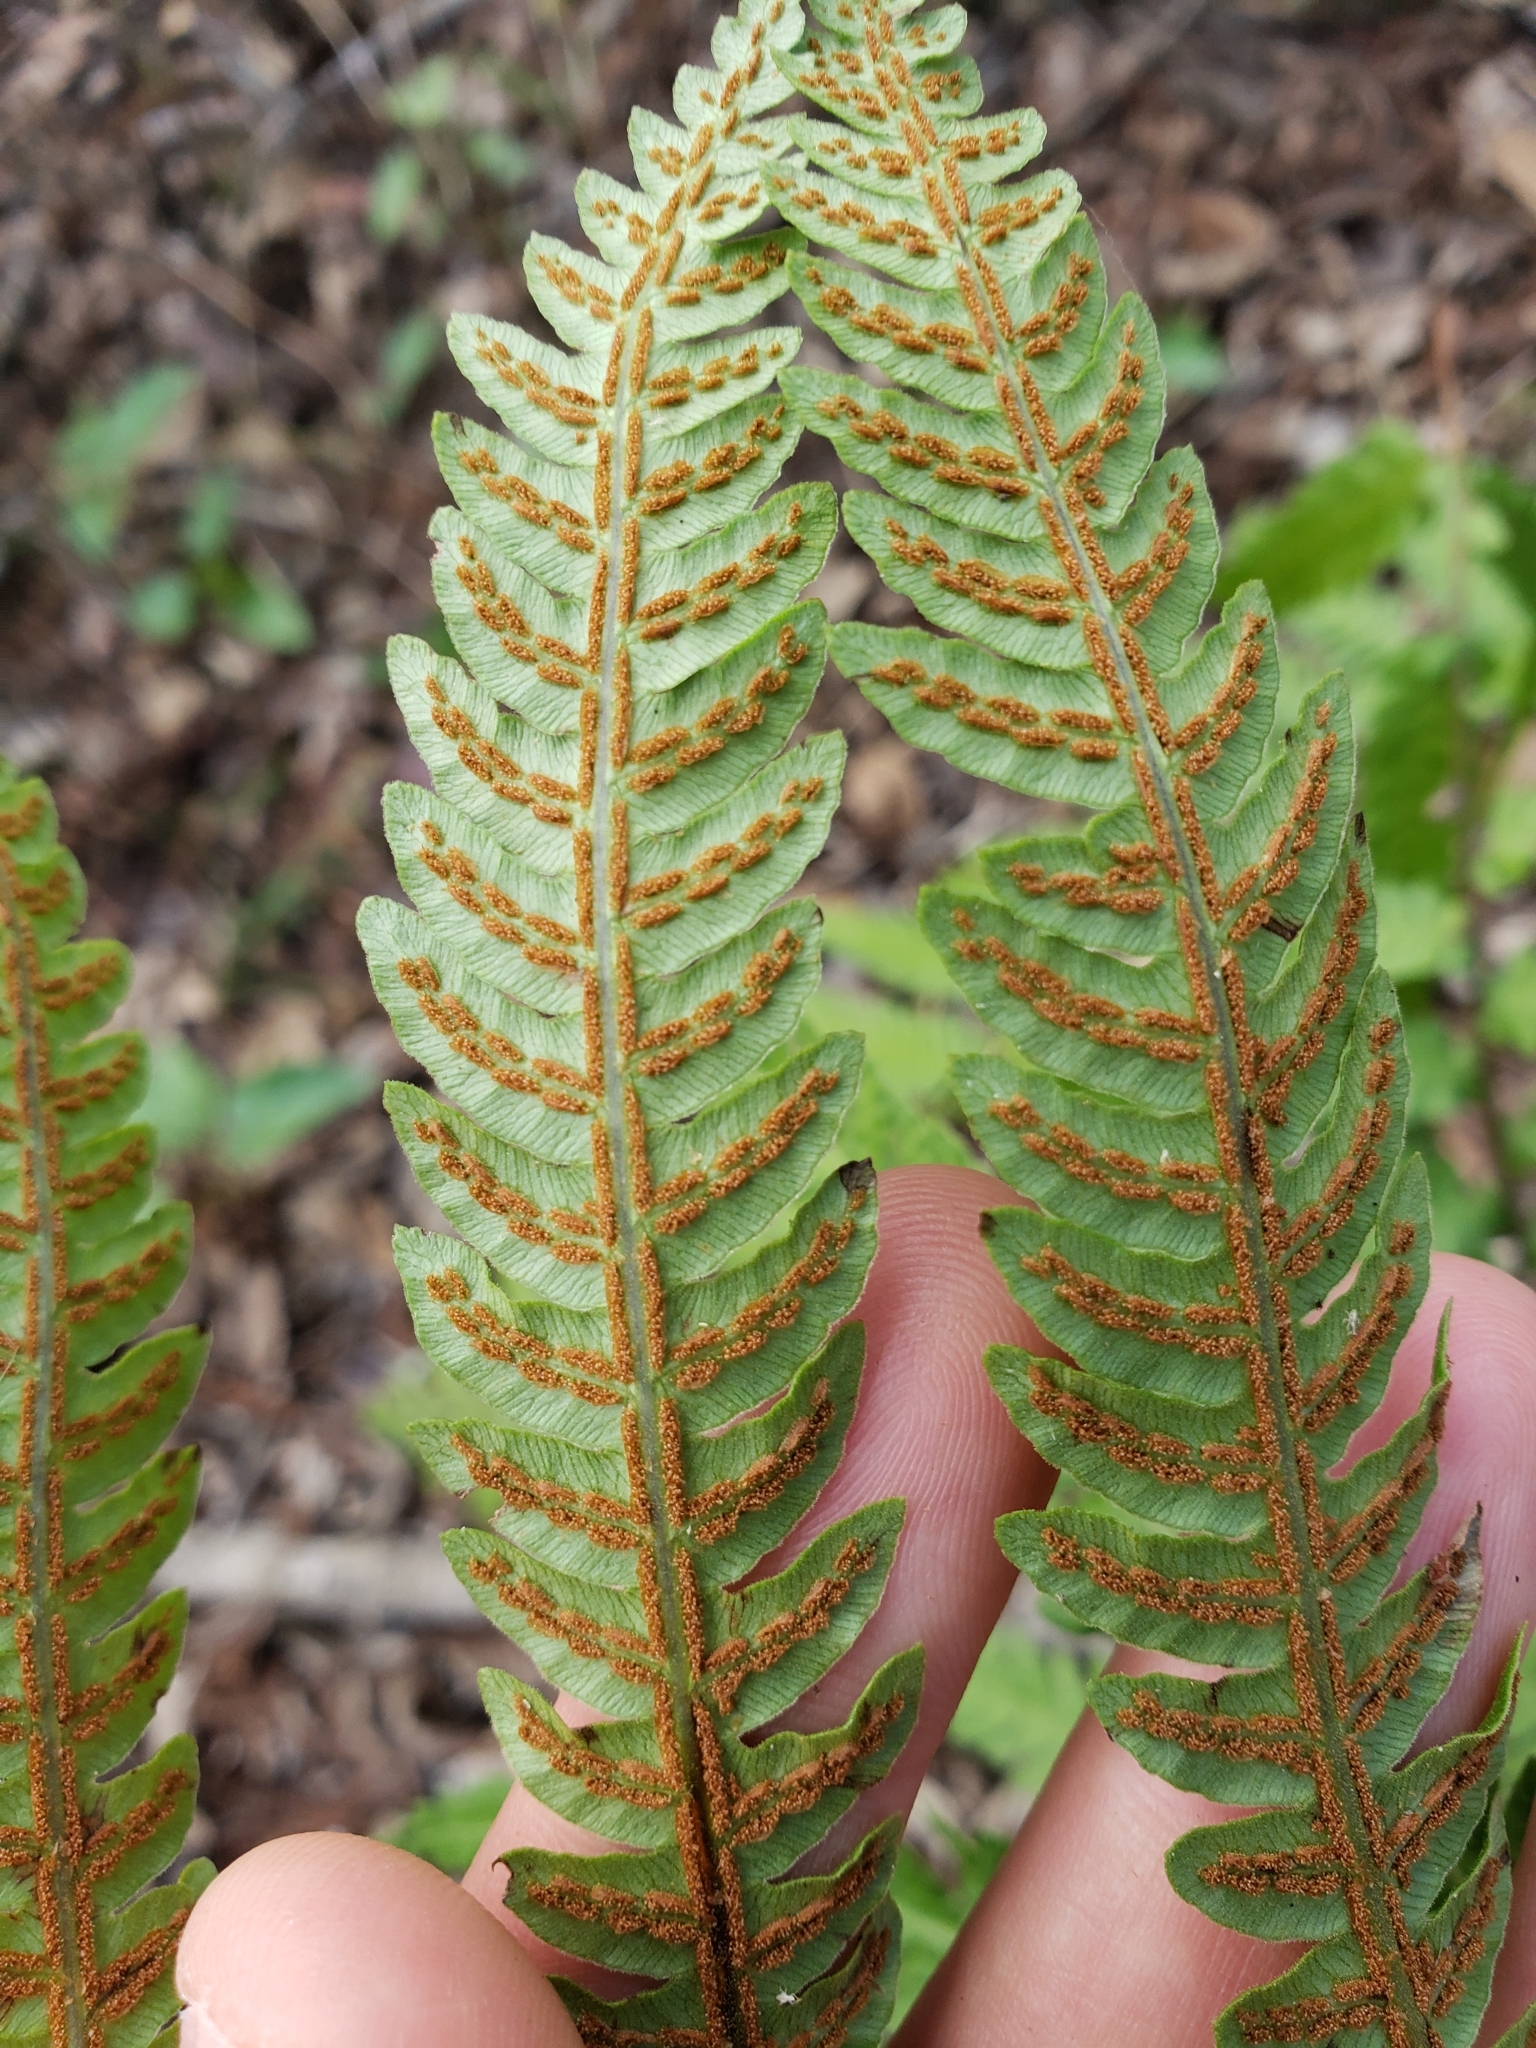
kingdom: Plantae
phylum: Tracheophyta
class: Polypodiopsida
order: Polypodiales
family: Blechnaceae
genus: Anchistea
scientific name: Anchistea virginica
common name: Virginia chain fern
